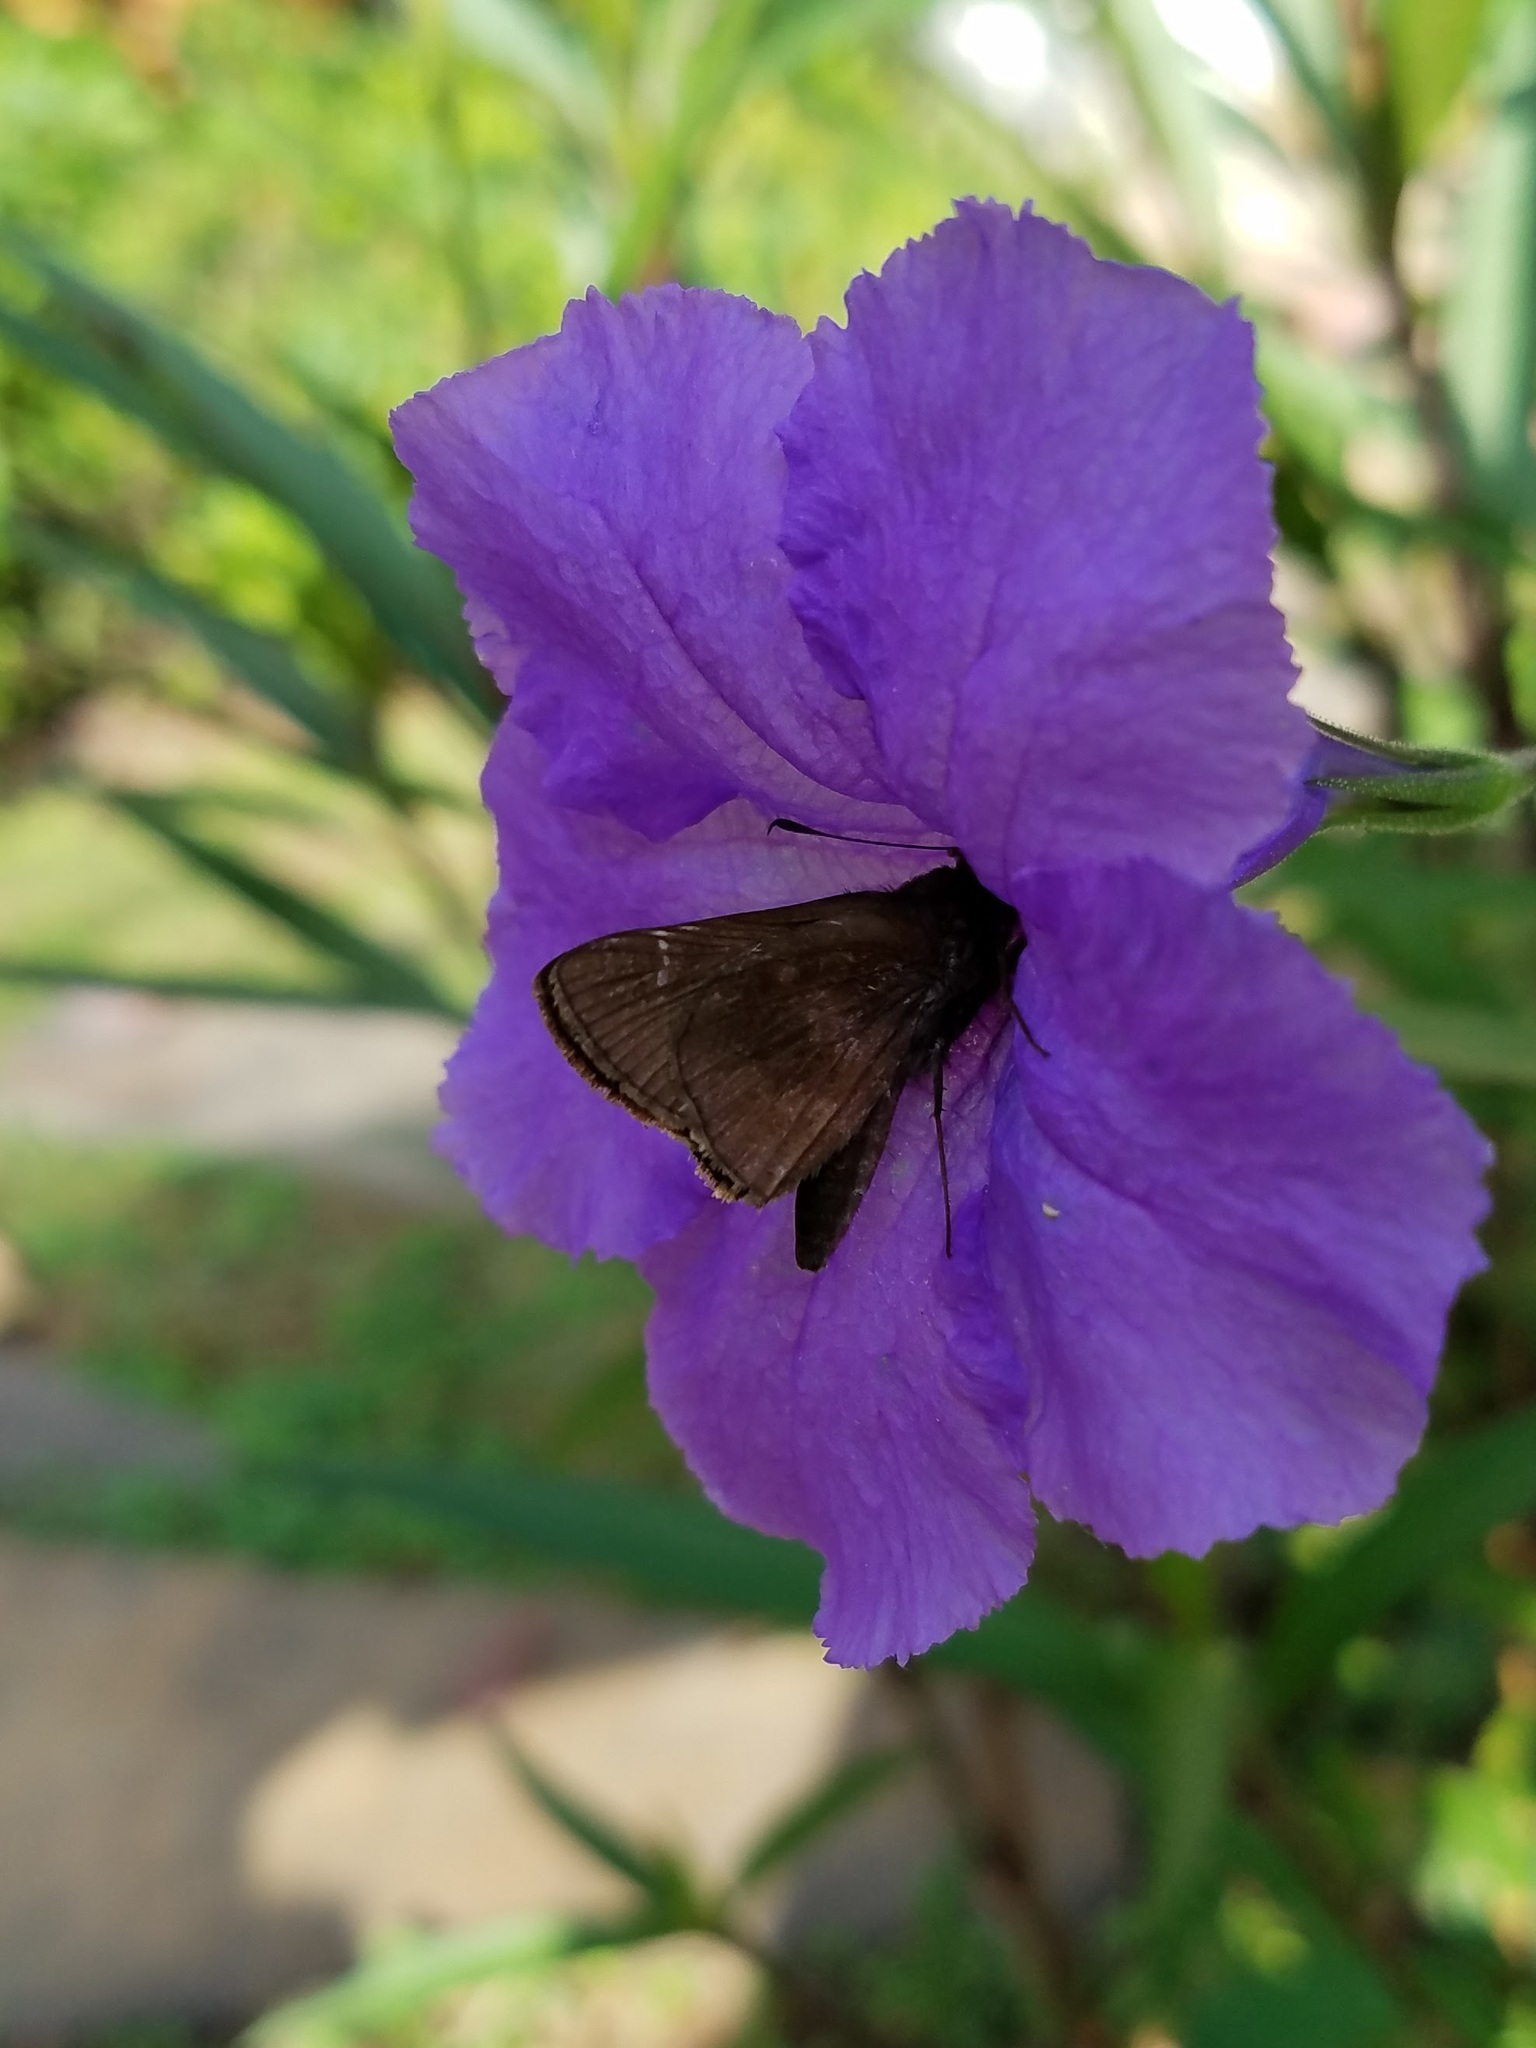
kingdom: Animalia
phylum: Arthropoda
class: Insecta
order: Lepidoptera
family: Hesperiidae
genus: Lerema
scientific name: Lerema accius
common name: Clouded skipper
